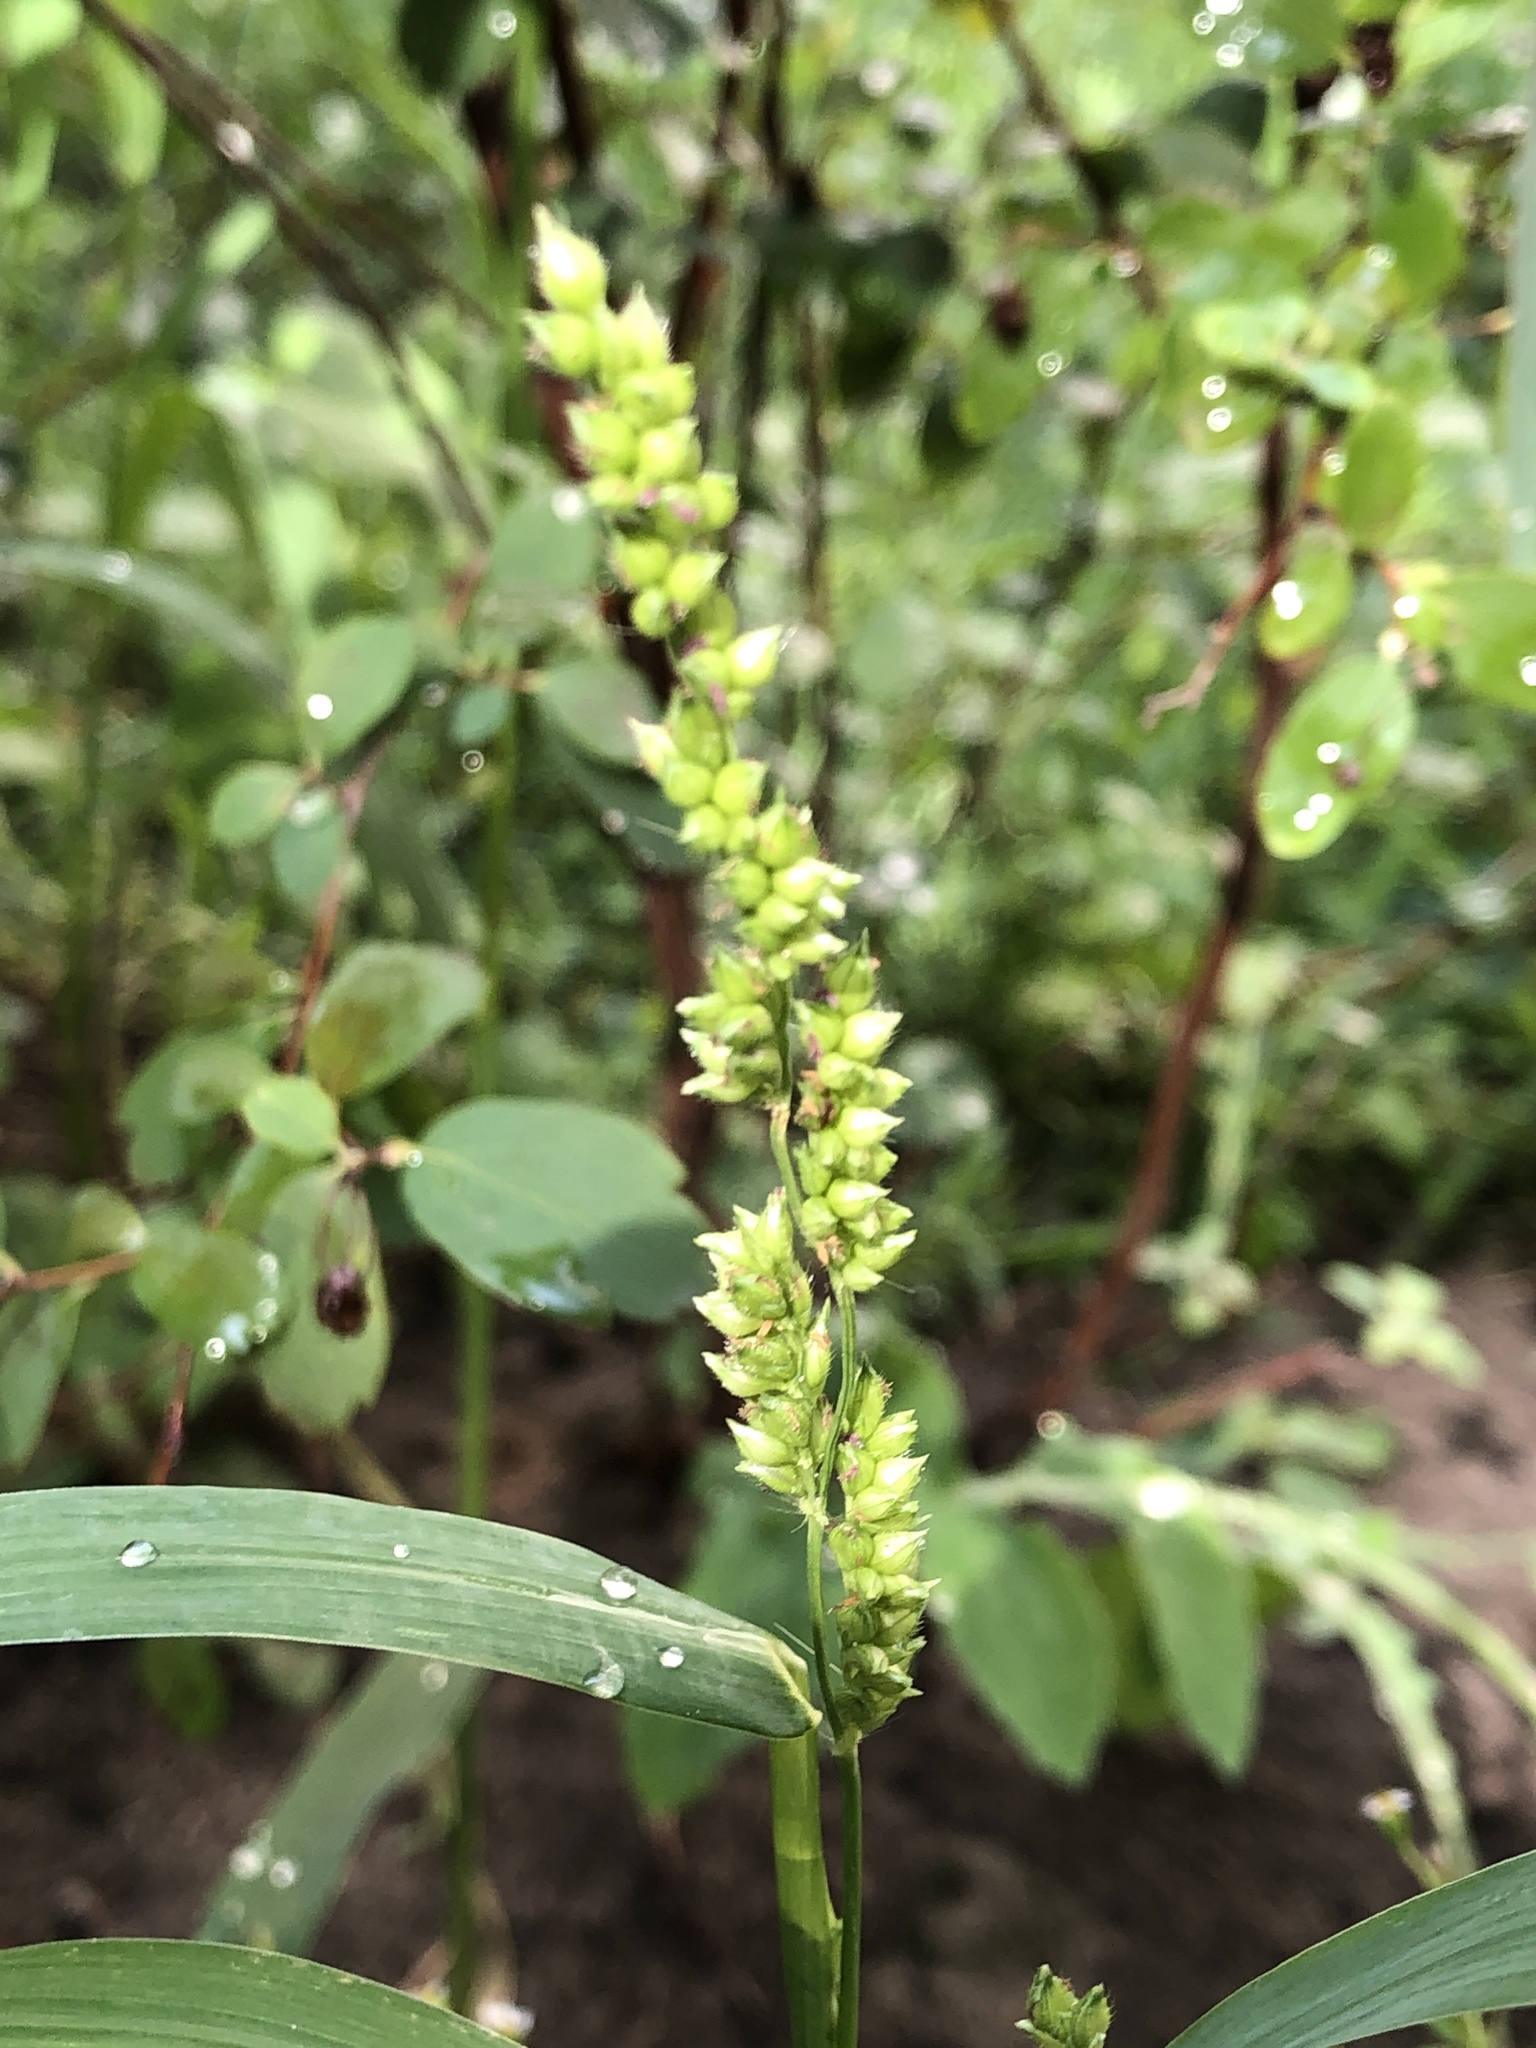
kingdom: Plantae
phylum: Tracheophyta
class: Liliopsida
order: Poales
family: Poaceae
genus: Echinochloa
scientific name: Echinochloa crus-galli
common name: Cockspur
